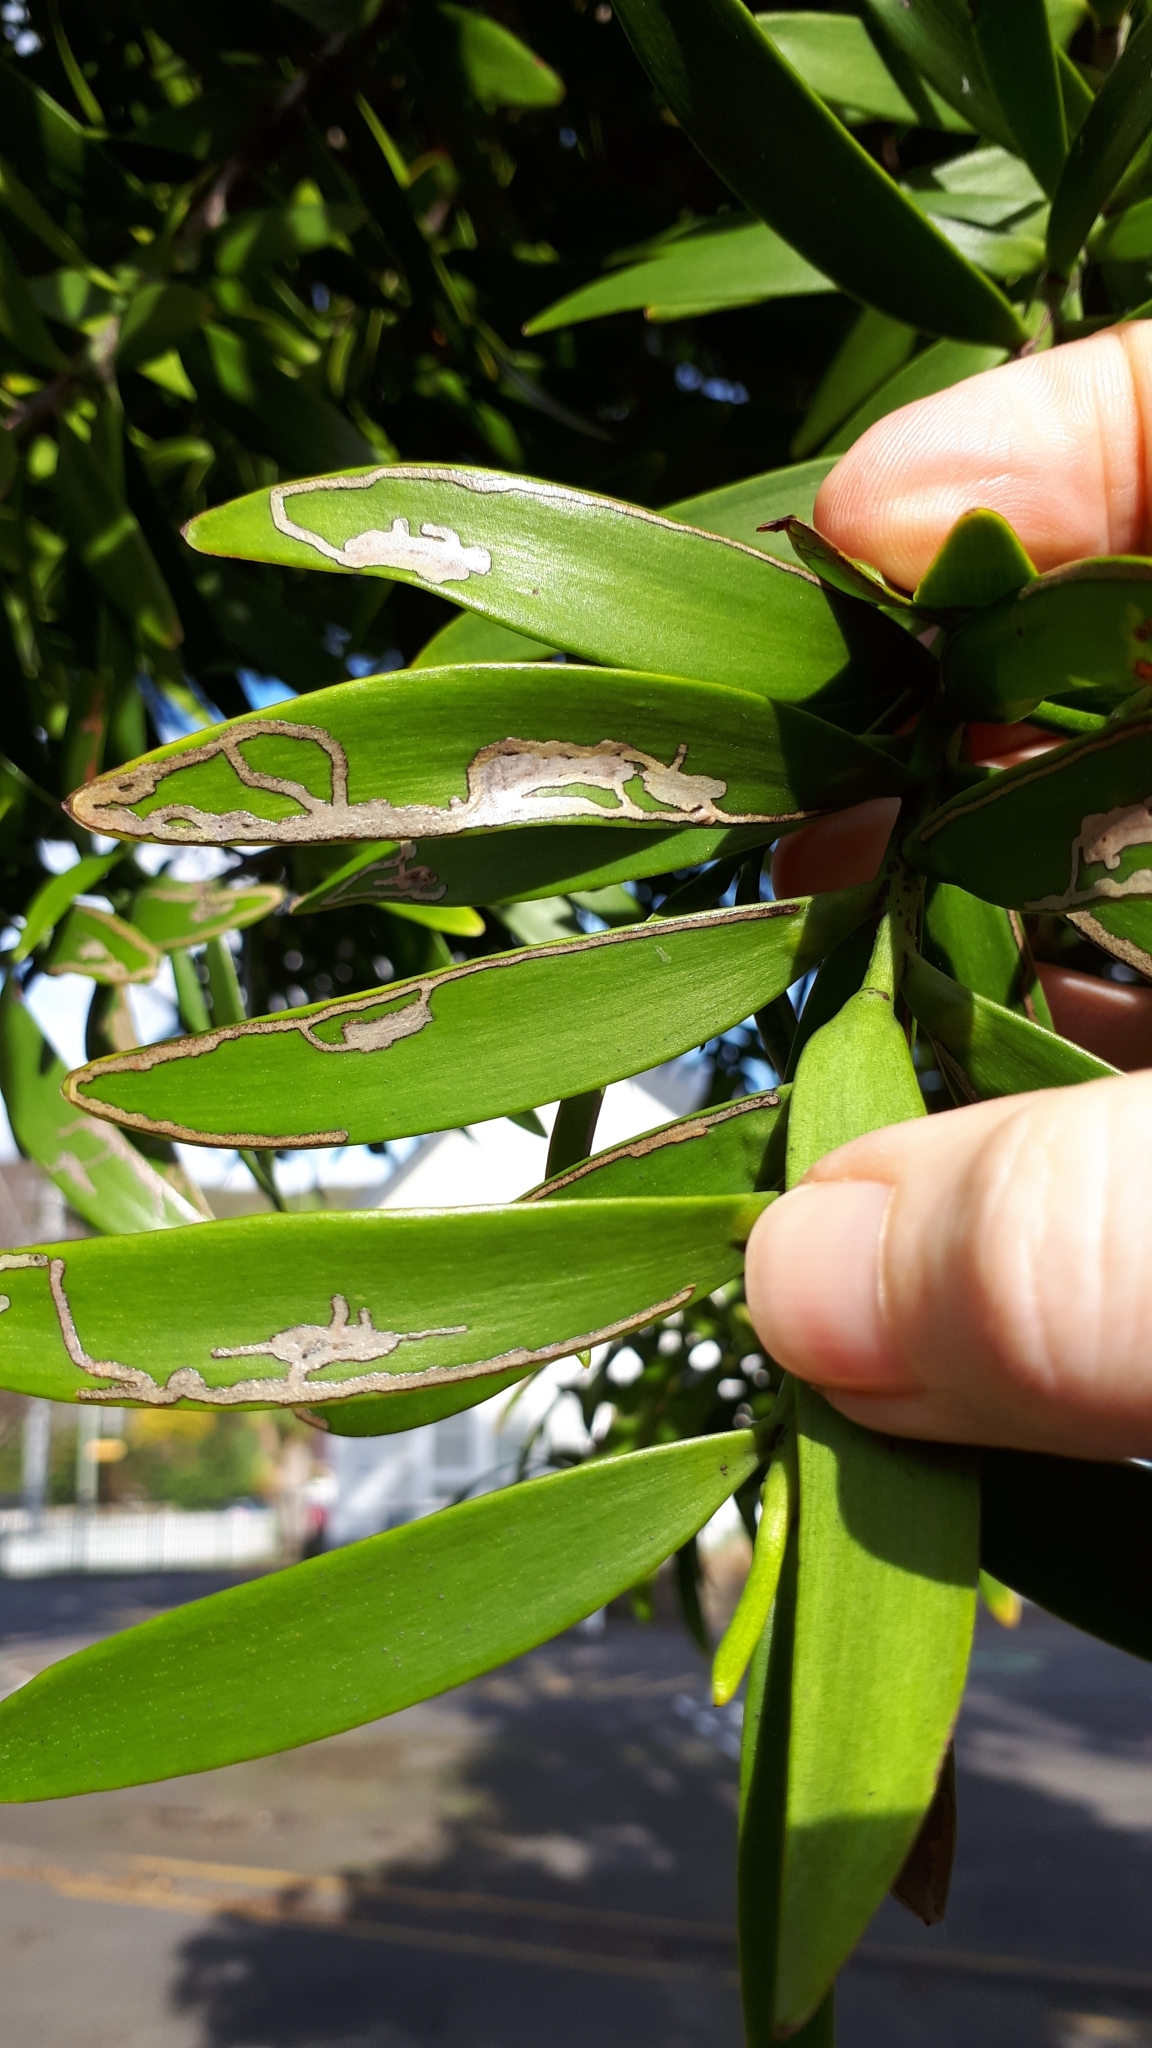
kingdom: Animalia
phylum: Arthropoda
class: Insecta
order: Lepidoptera
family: Gracillariidae
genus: Acrocercops
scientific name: Acrocercops leucotoma
